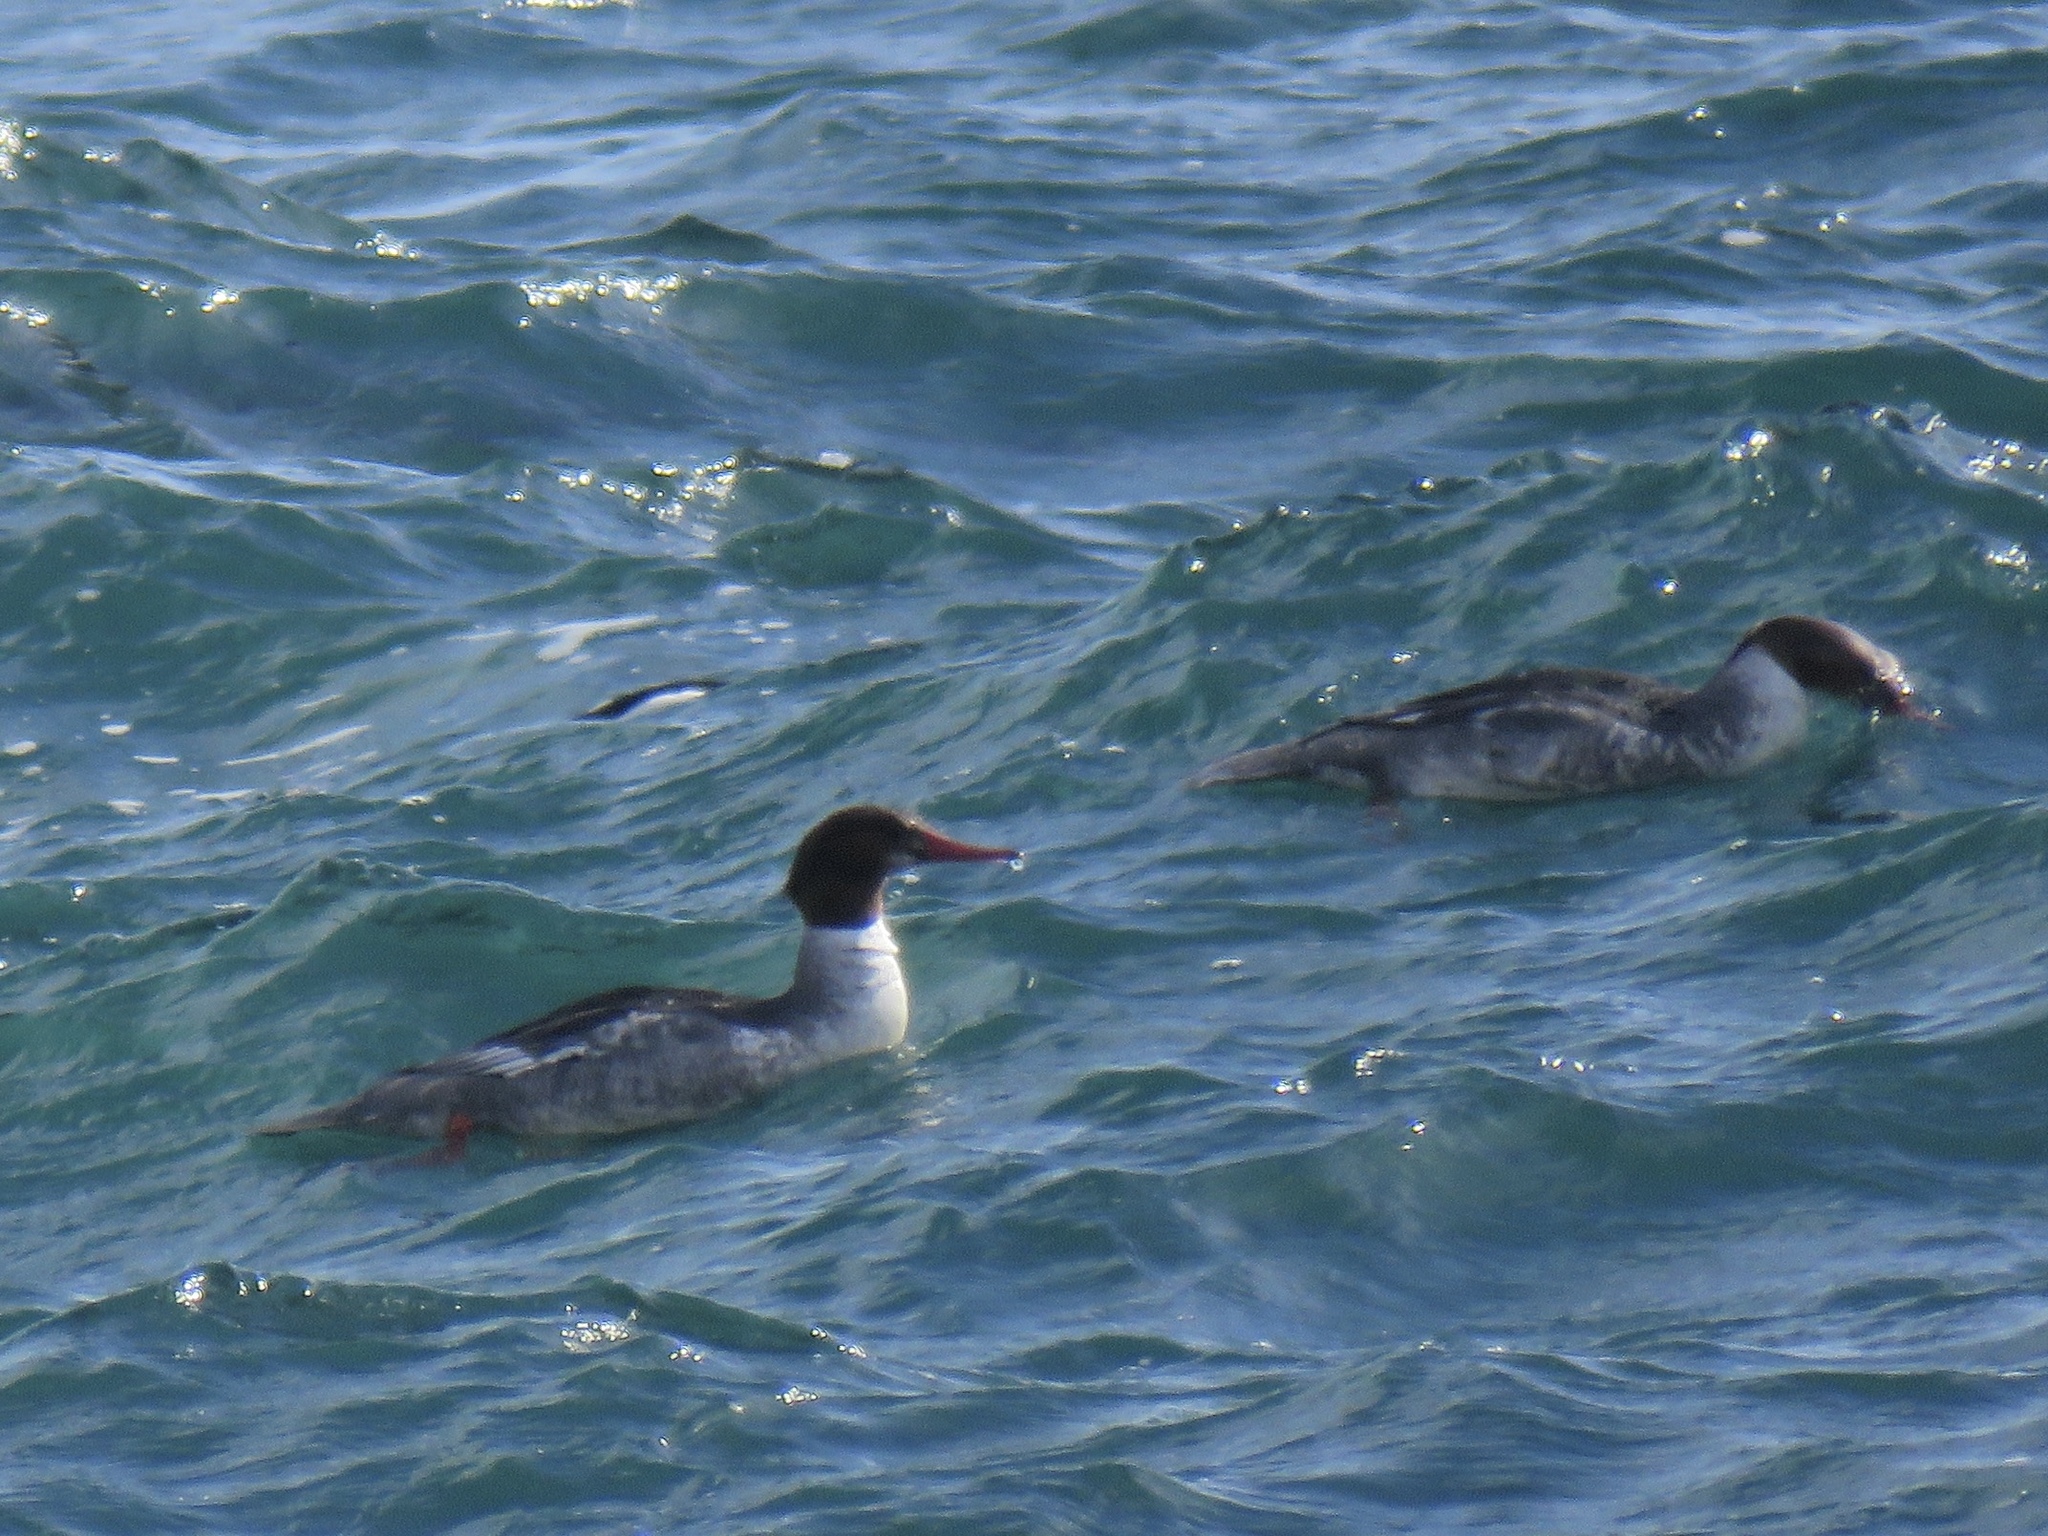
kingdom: Animalia
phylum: Chordata
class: Aves
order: Anseriformes
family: Anatidae
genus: Mergus
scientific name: Mergus merganser
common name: Common merganser
